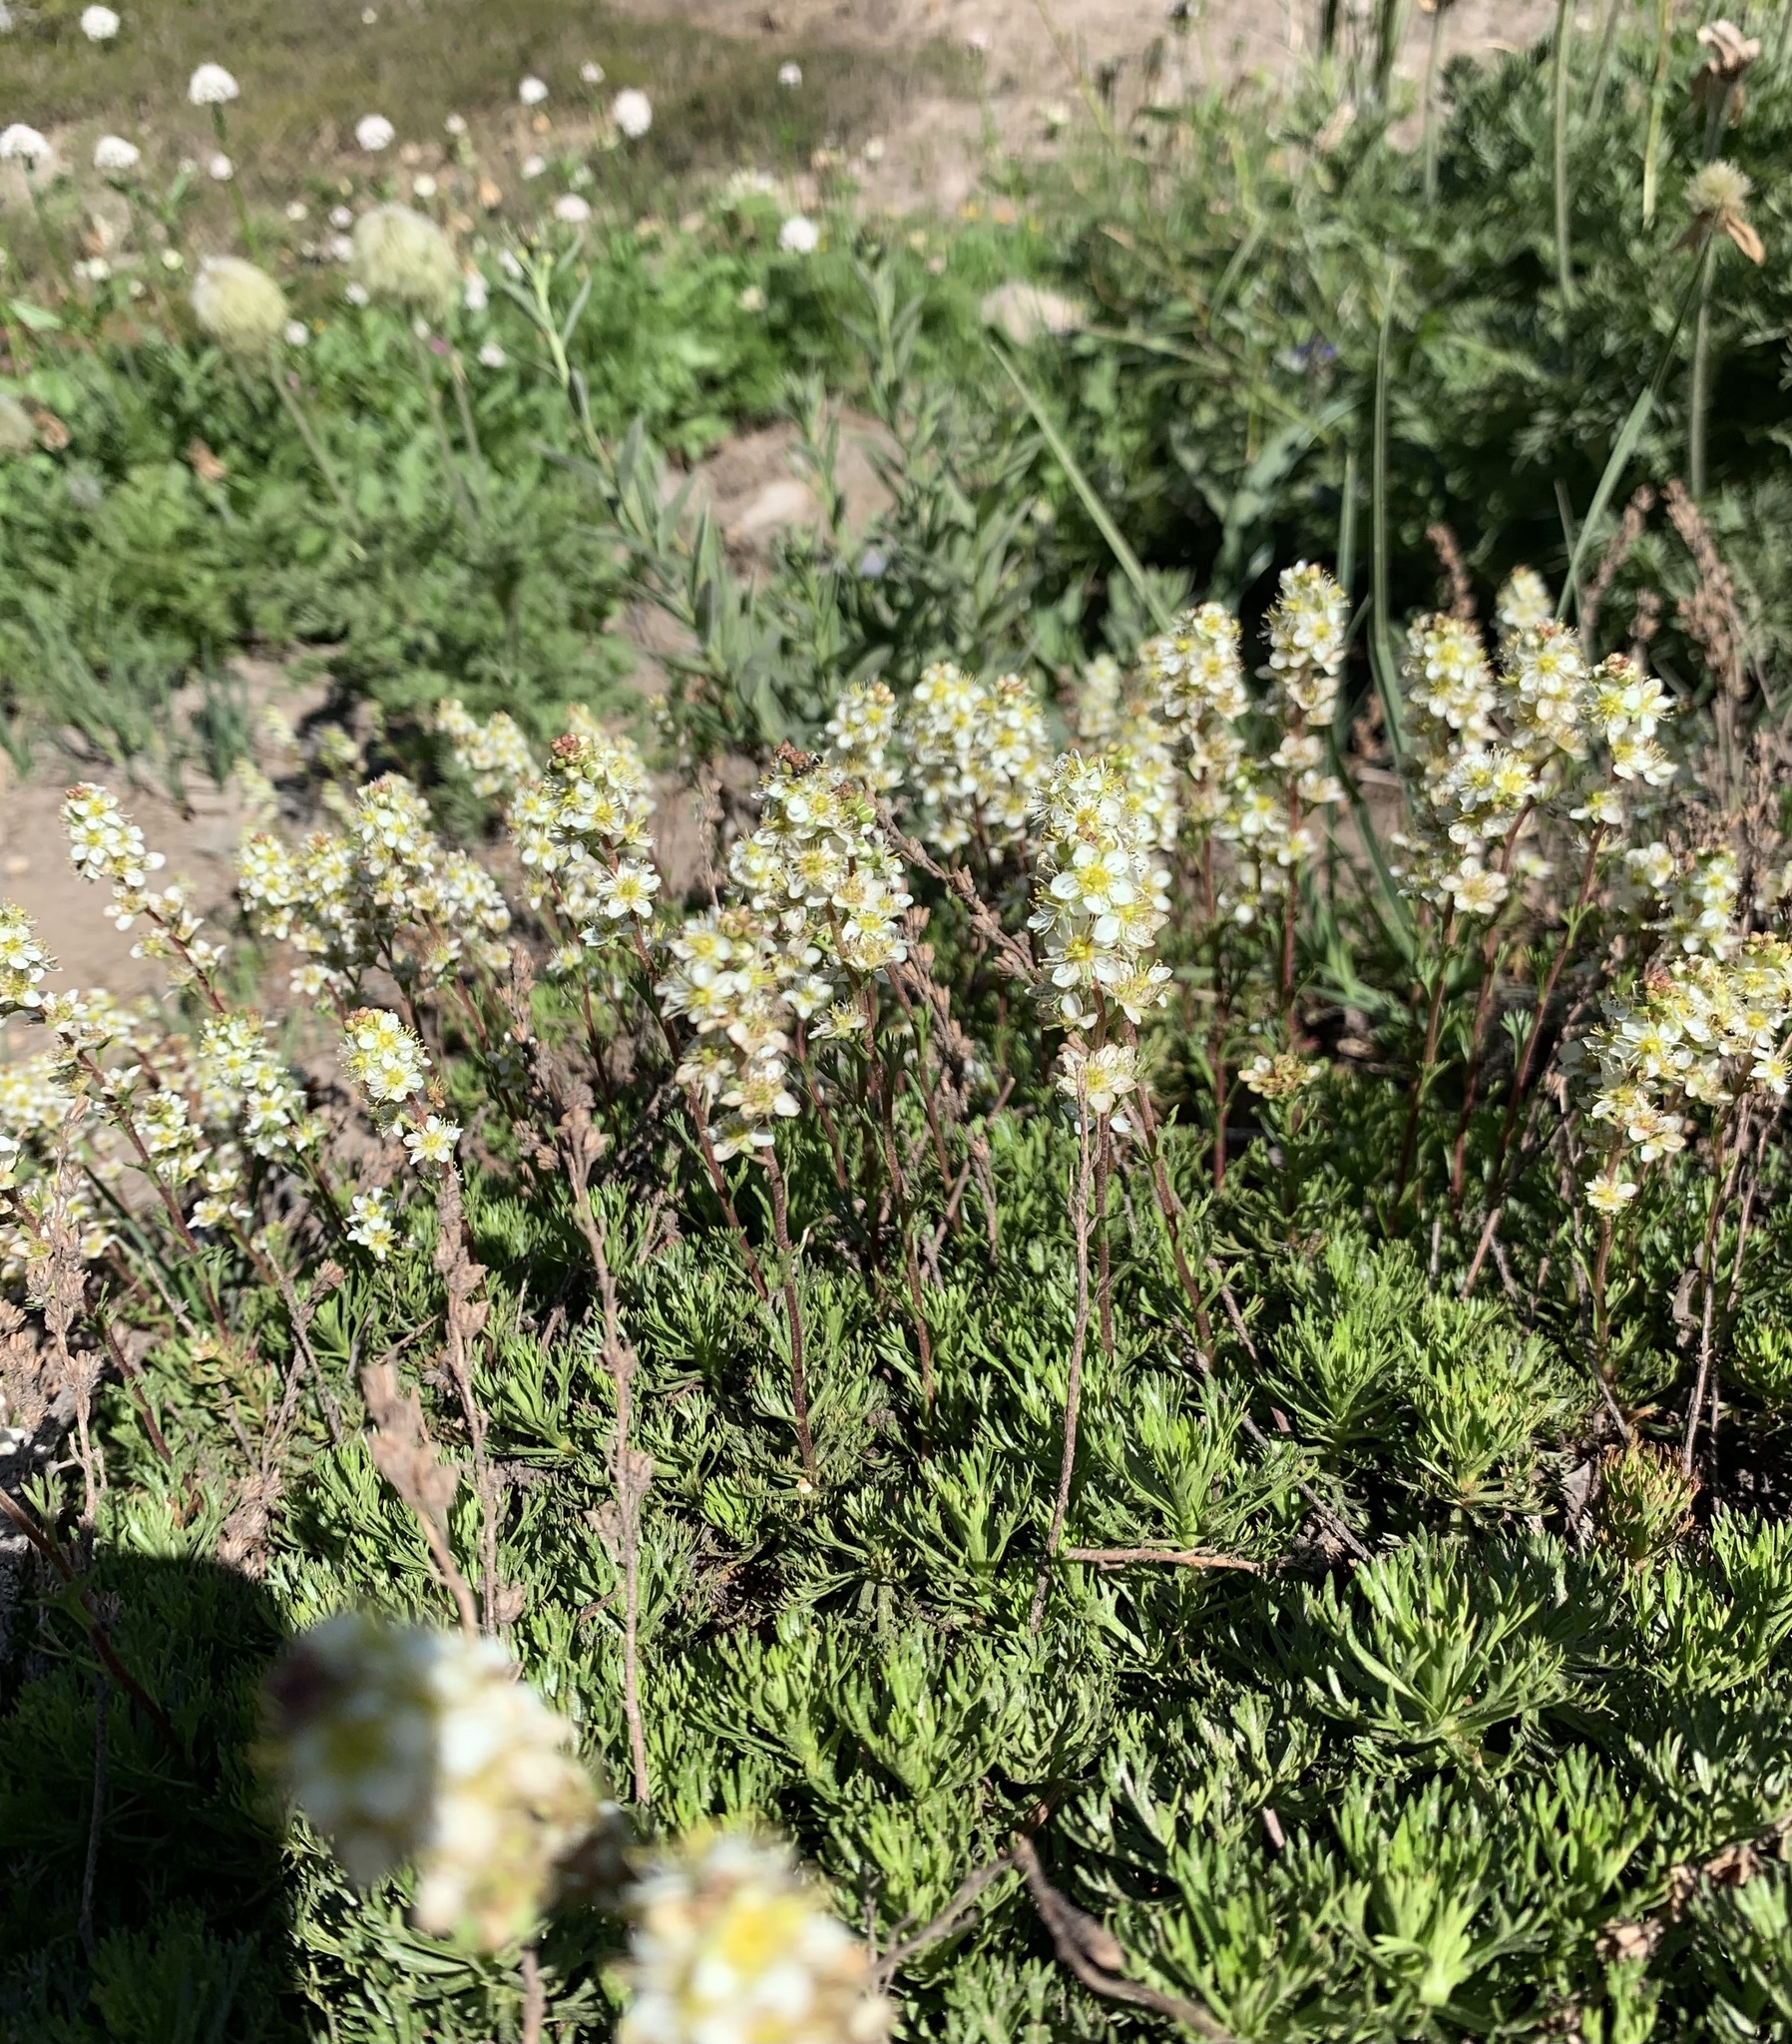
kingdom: Plantae
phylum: Tracheophyta
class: Magnoliopsida
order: Rosales
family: Rosaceae
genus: Luetkea
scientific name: Luetkea pectinata
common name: Partridgefoot
